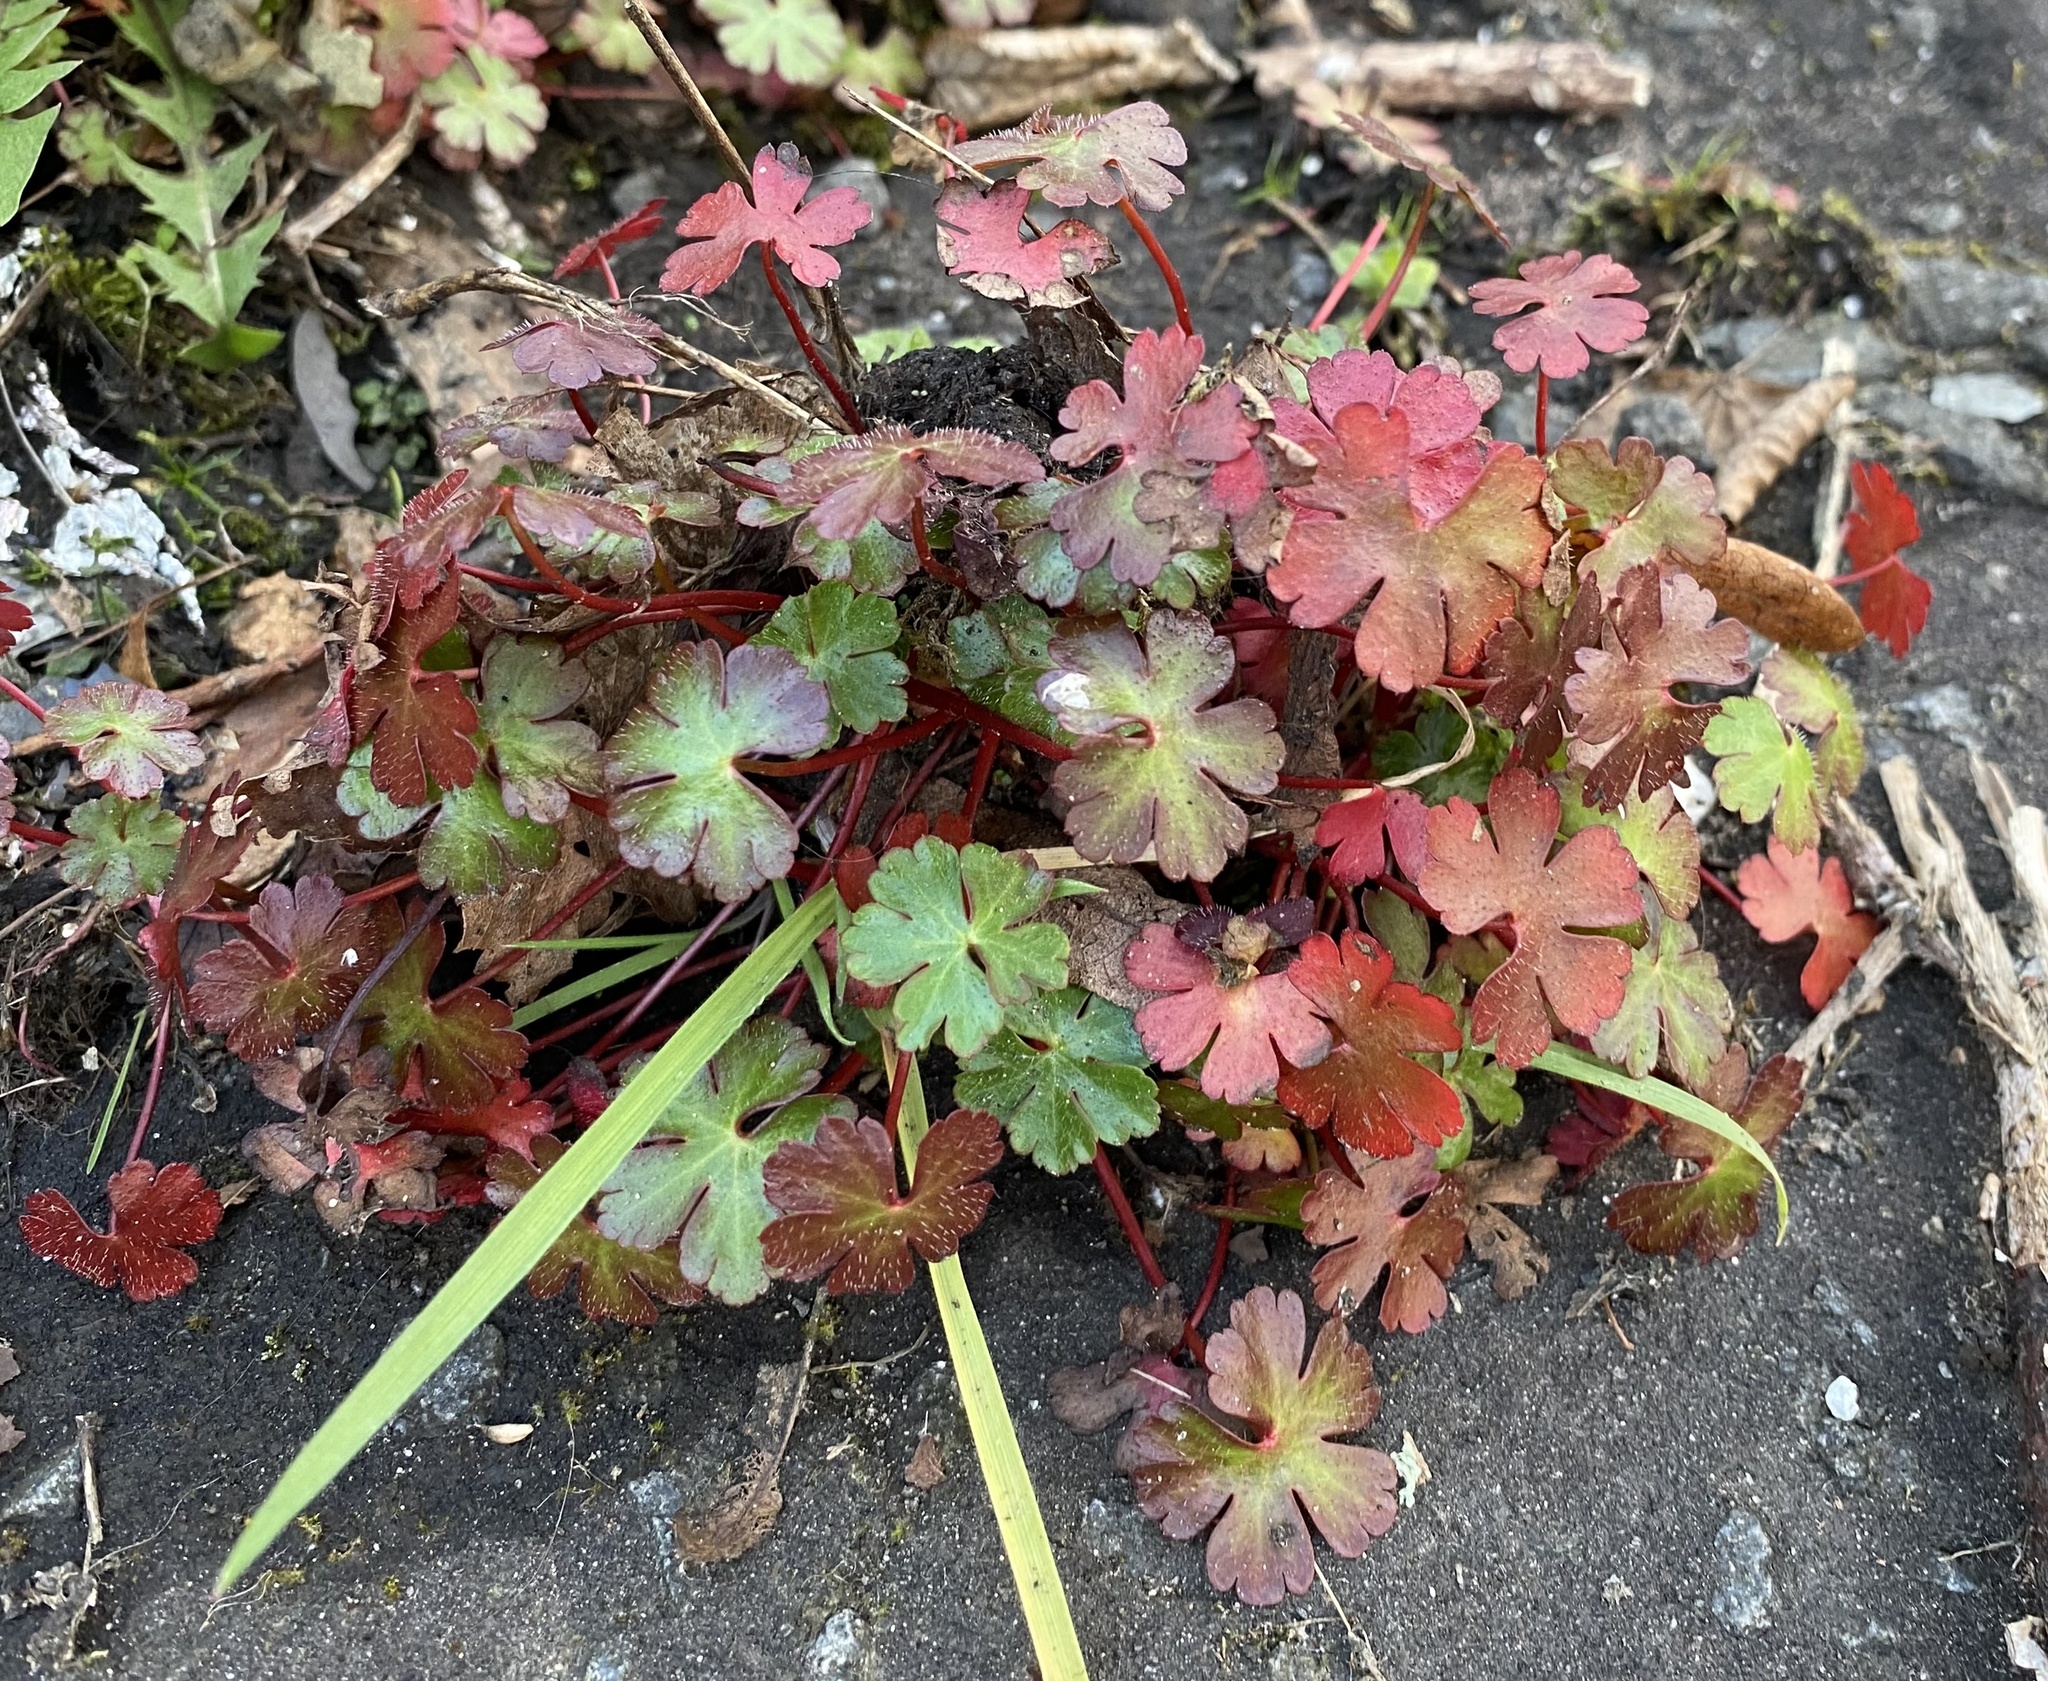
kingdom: Plantae
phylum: Tracheophyta
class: Magnoliopsida
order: Geraniales
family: Geraniaceae
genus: Geranium
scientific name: Geranium lucidum
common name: Shining crane's-bill
